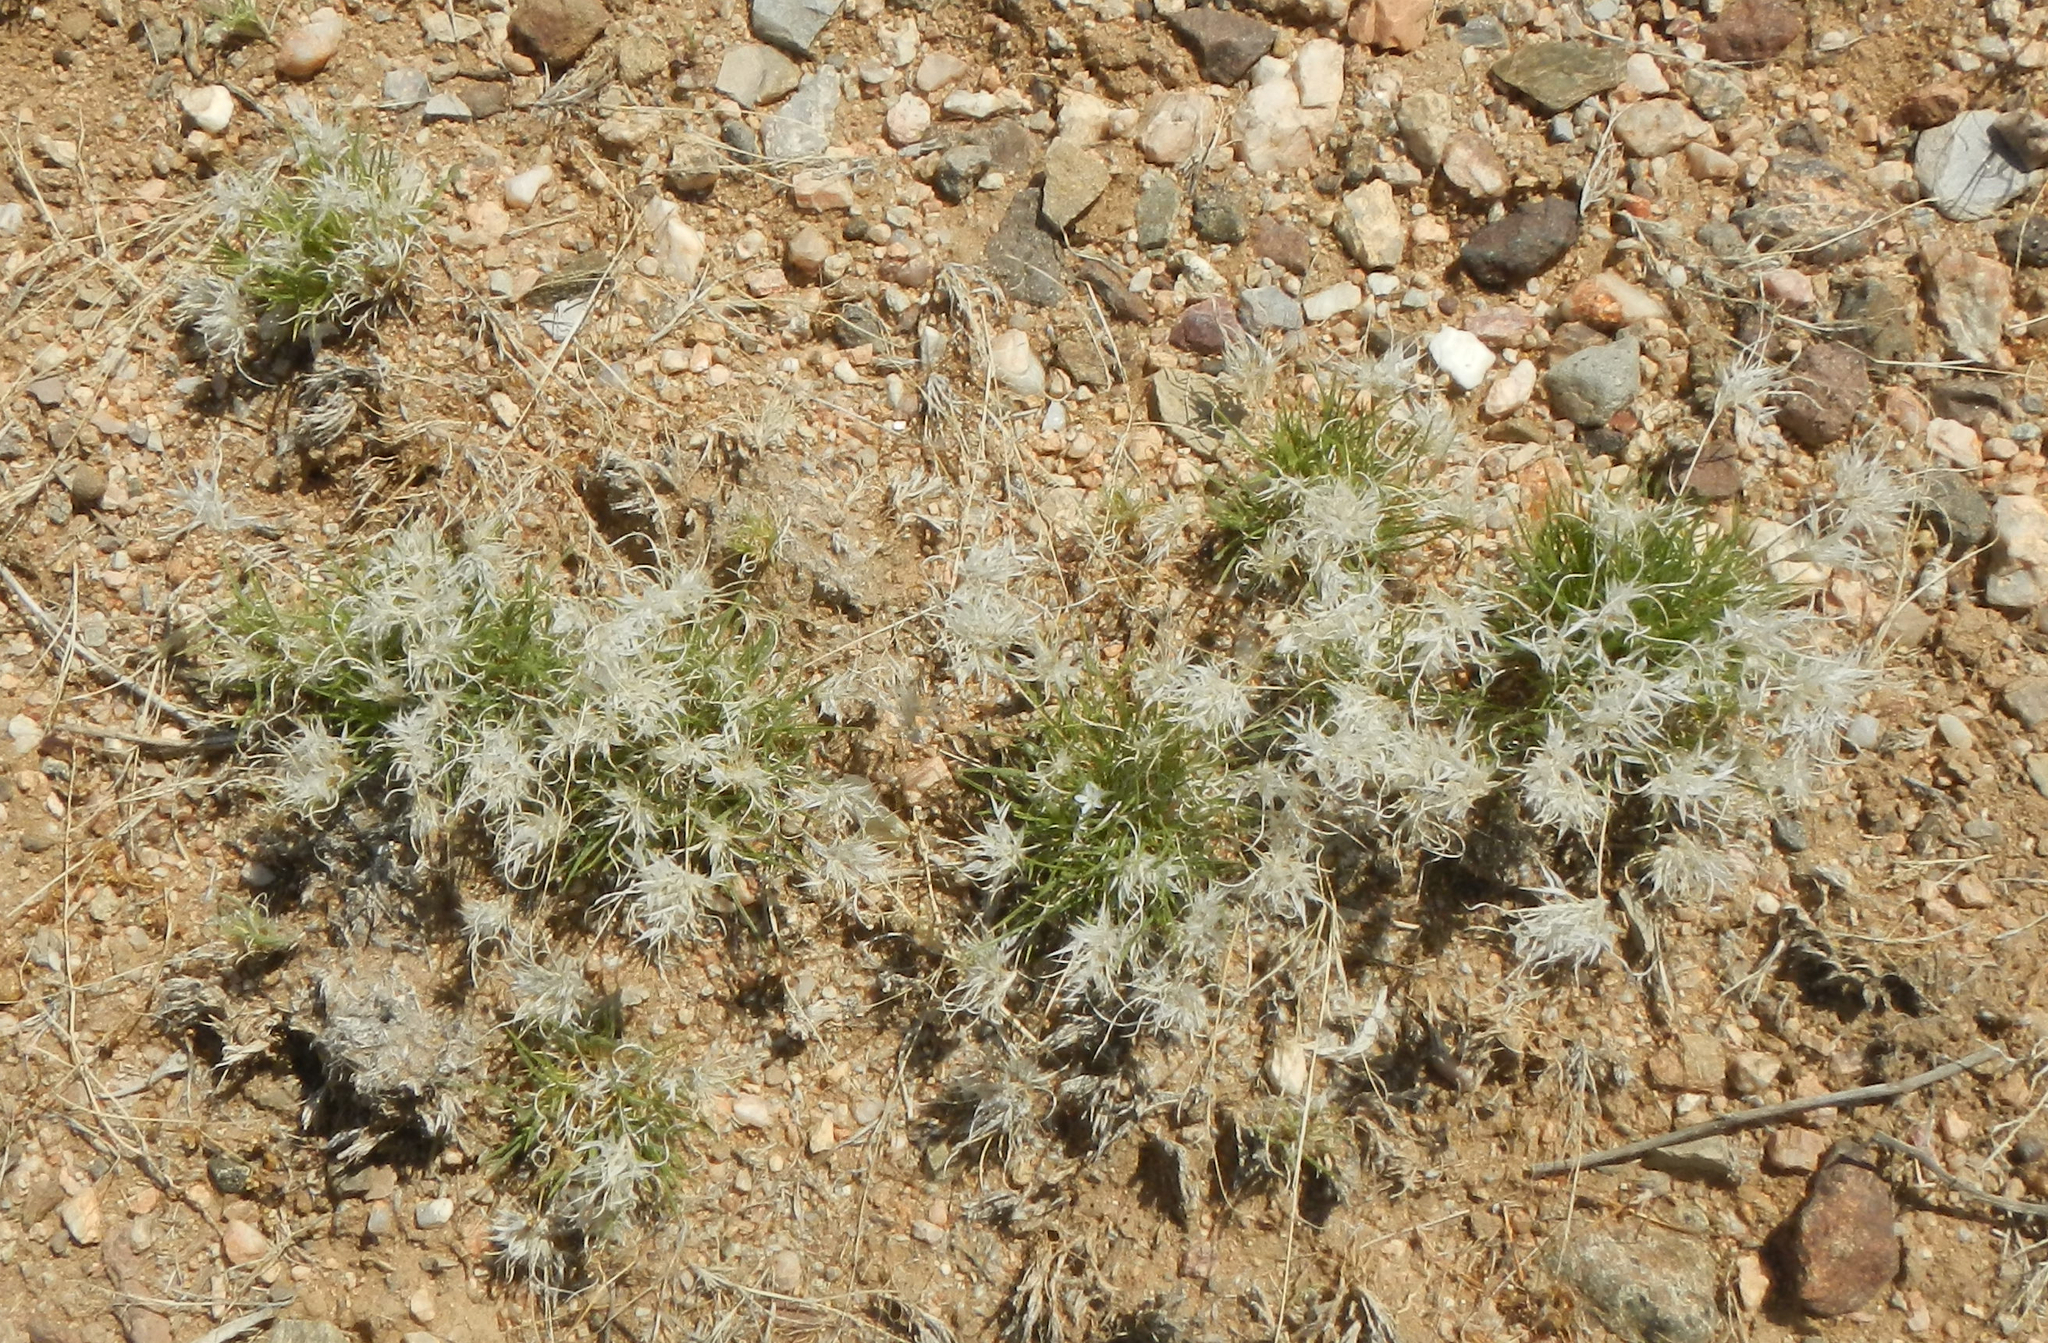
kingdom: Plantae
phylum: Tracheophyta
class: Liliopsida
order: Poales
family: Poaceae
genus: Dasyochloa
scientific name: Dasyochloa pulchella
